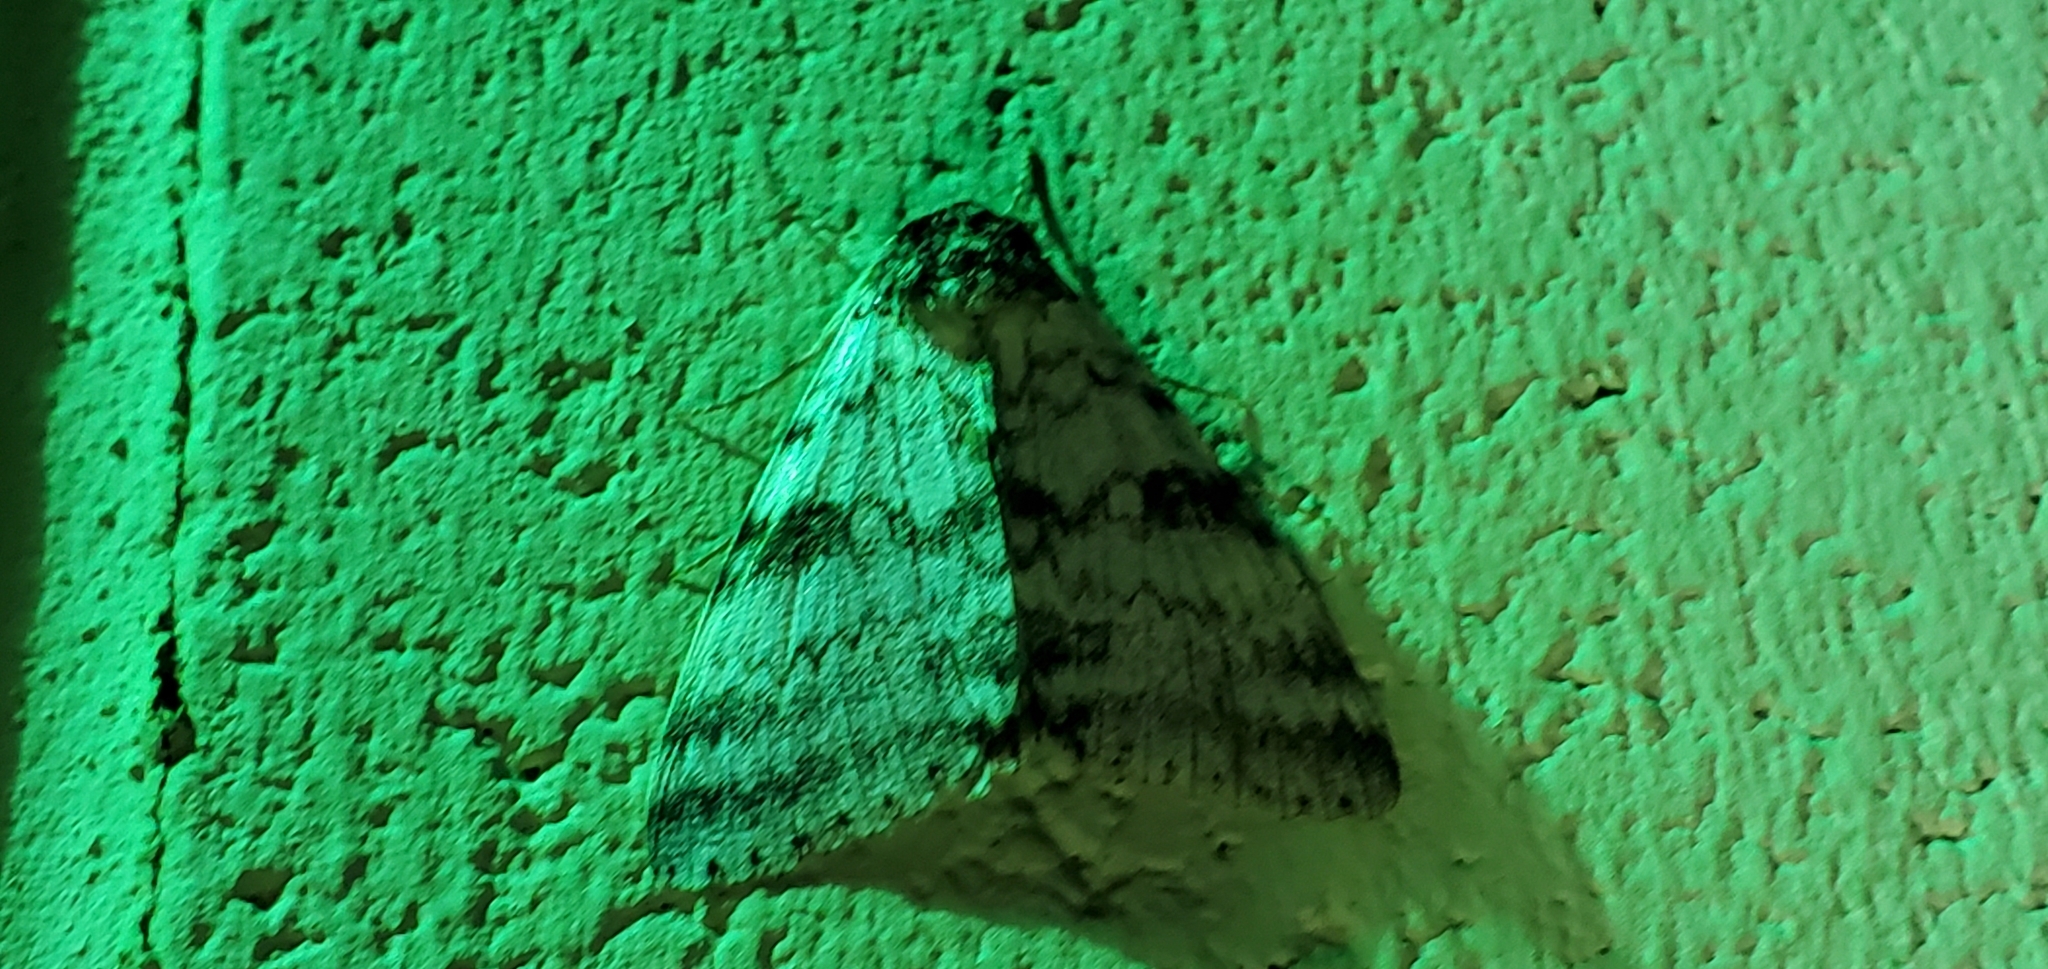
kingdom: Animalia
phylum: Arthropoda
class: Insecta
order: Lepidoptera
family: Erebidae
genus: Catocala
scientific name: Catocala relicta
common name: White underwing
